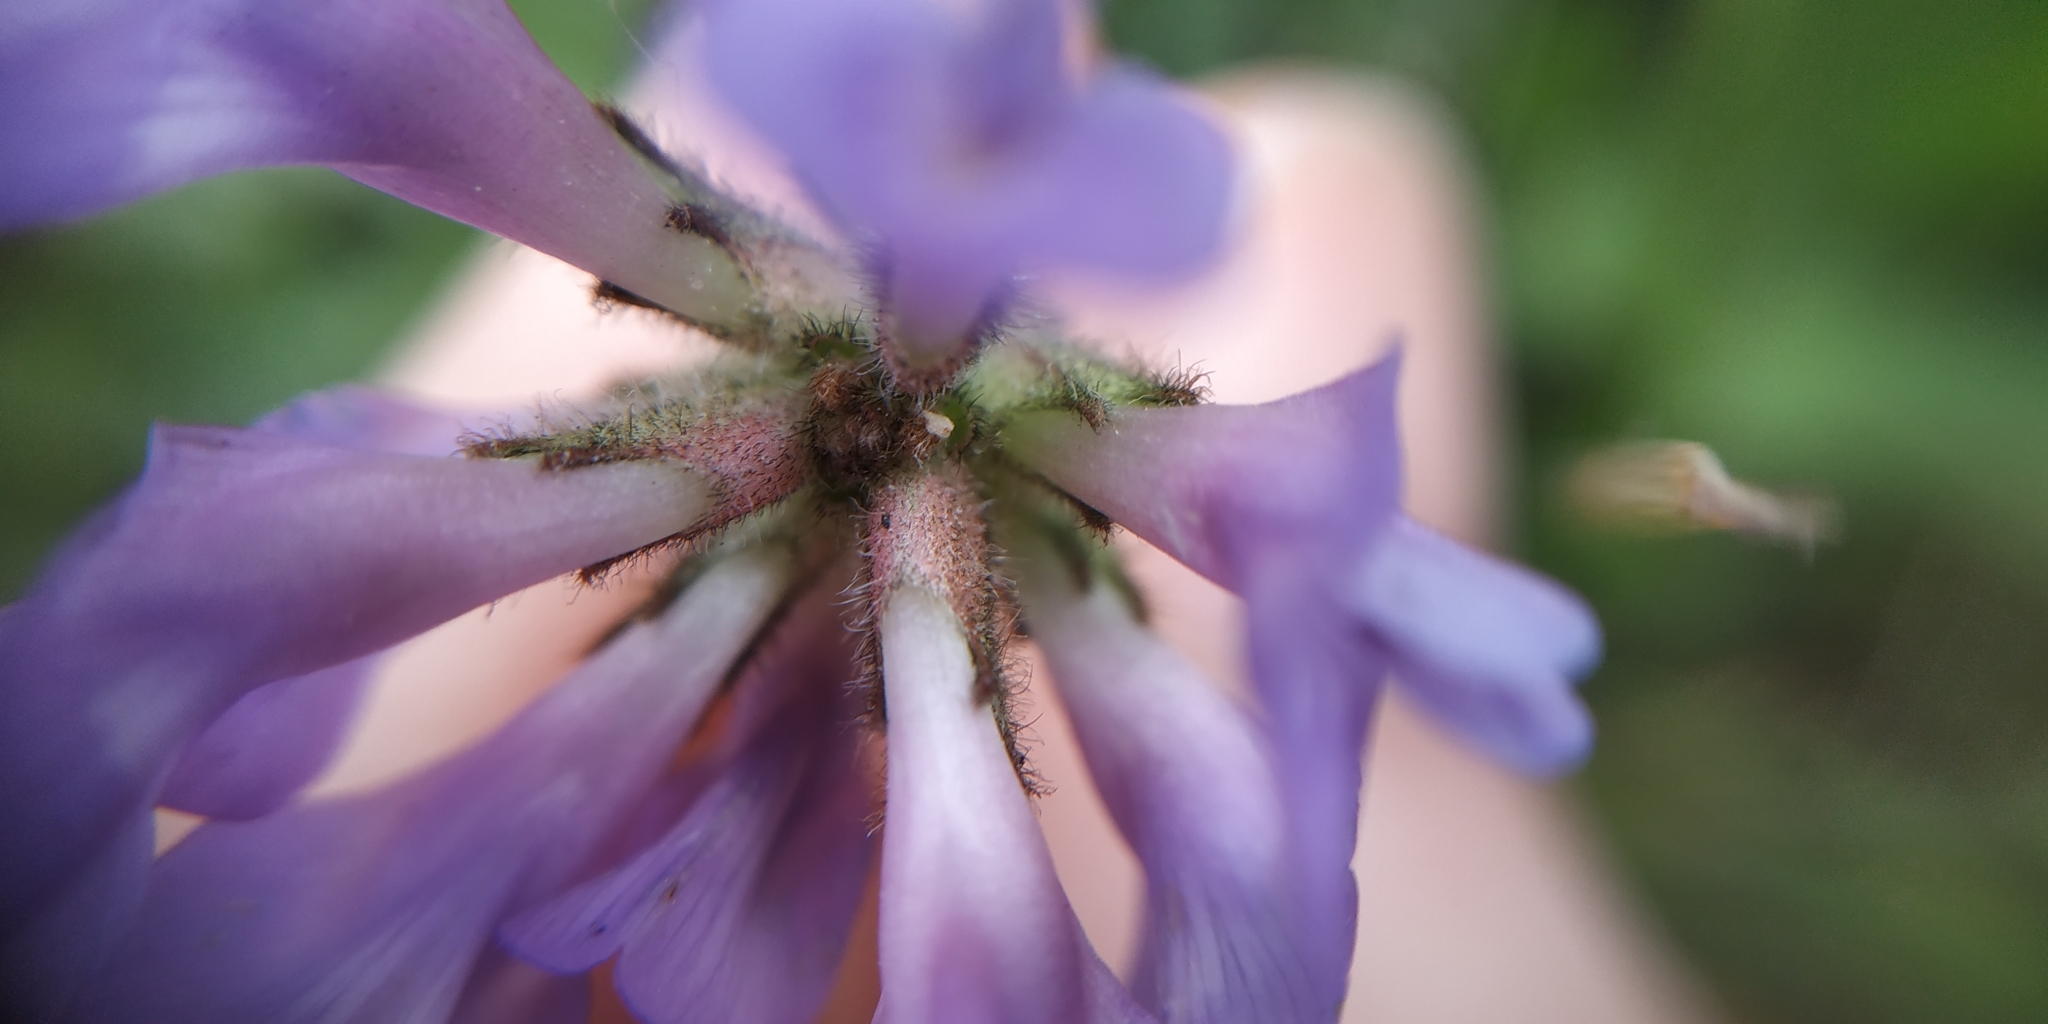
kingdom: Plantae
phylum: Tracheophyta
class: Magnoliopsida
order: Fabales
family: Fabaceae
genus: Astragalus
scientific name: Astragalus danicus
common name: Purple milk-vetch
